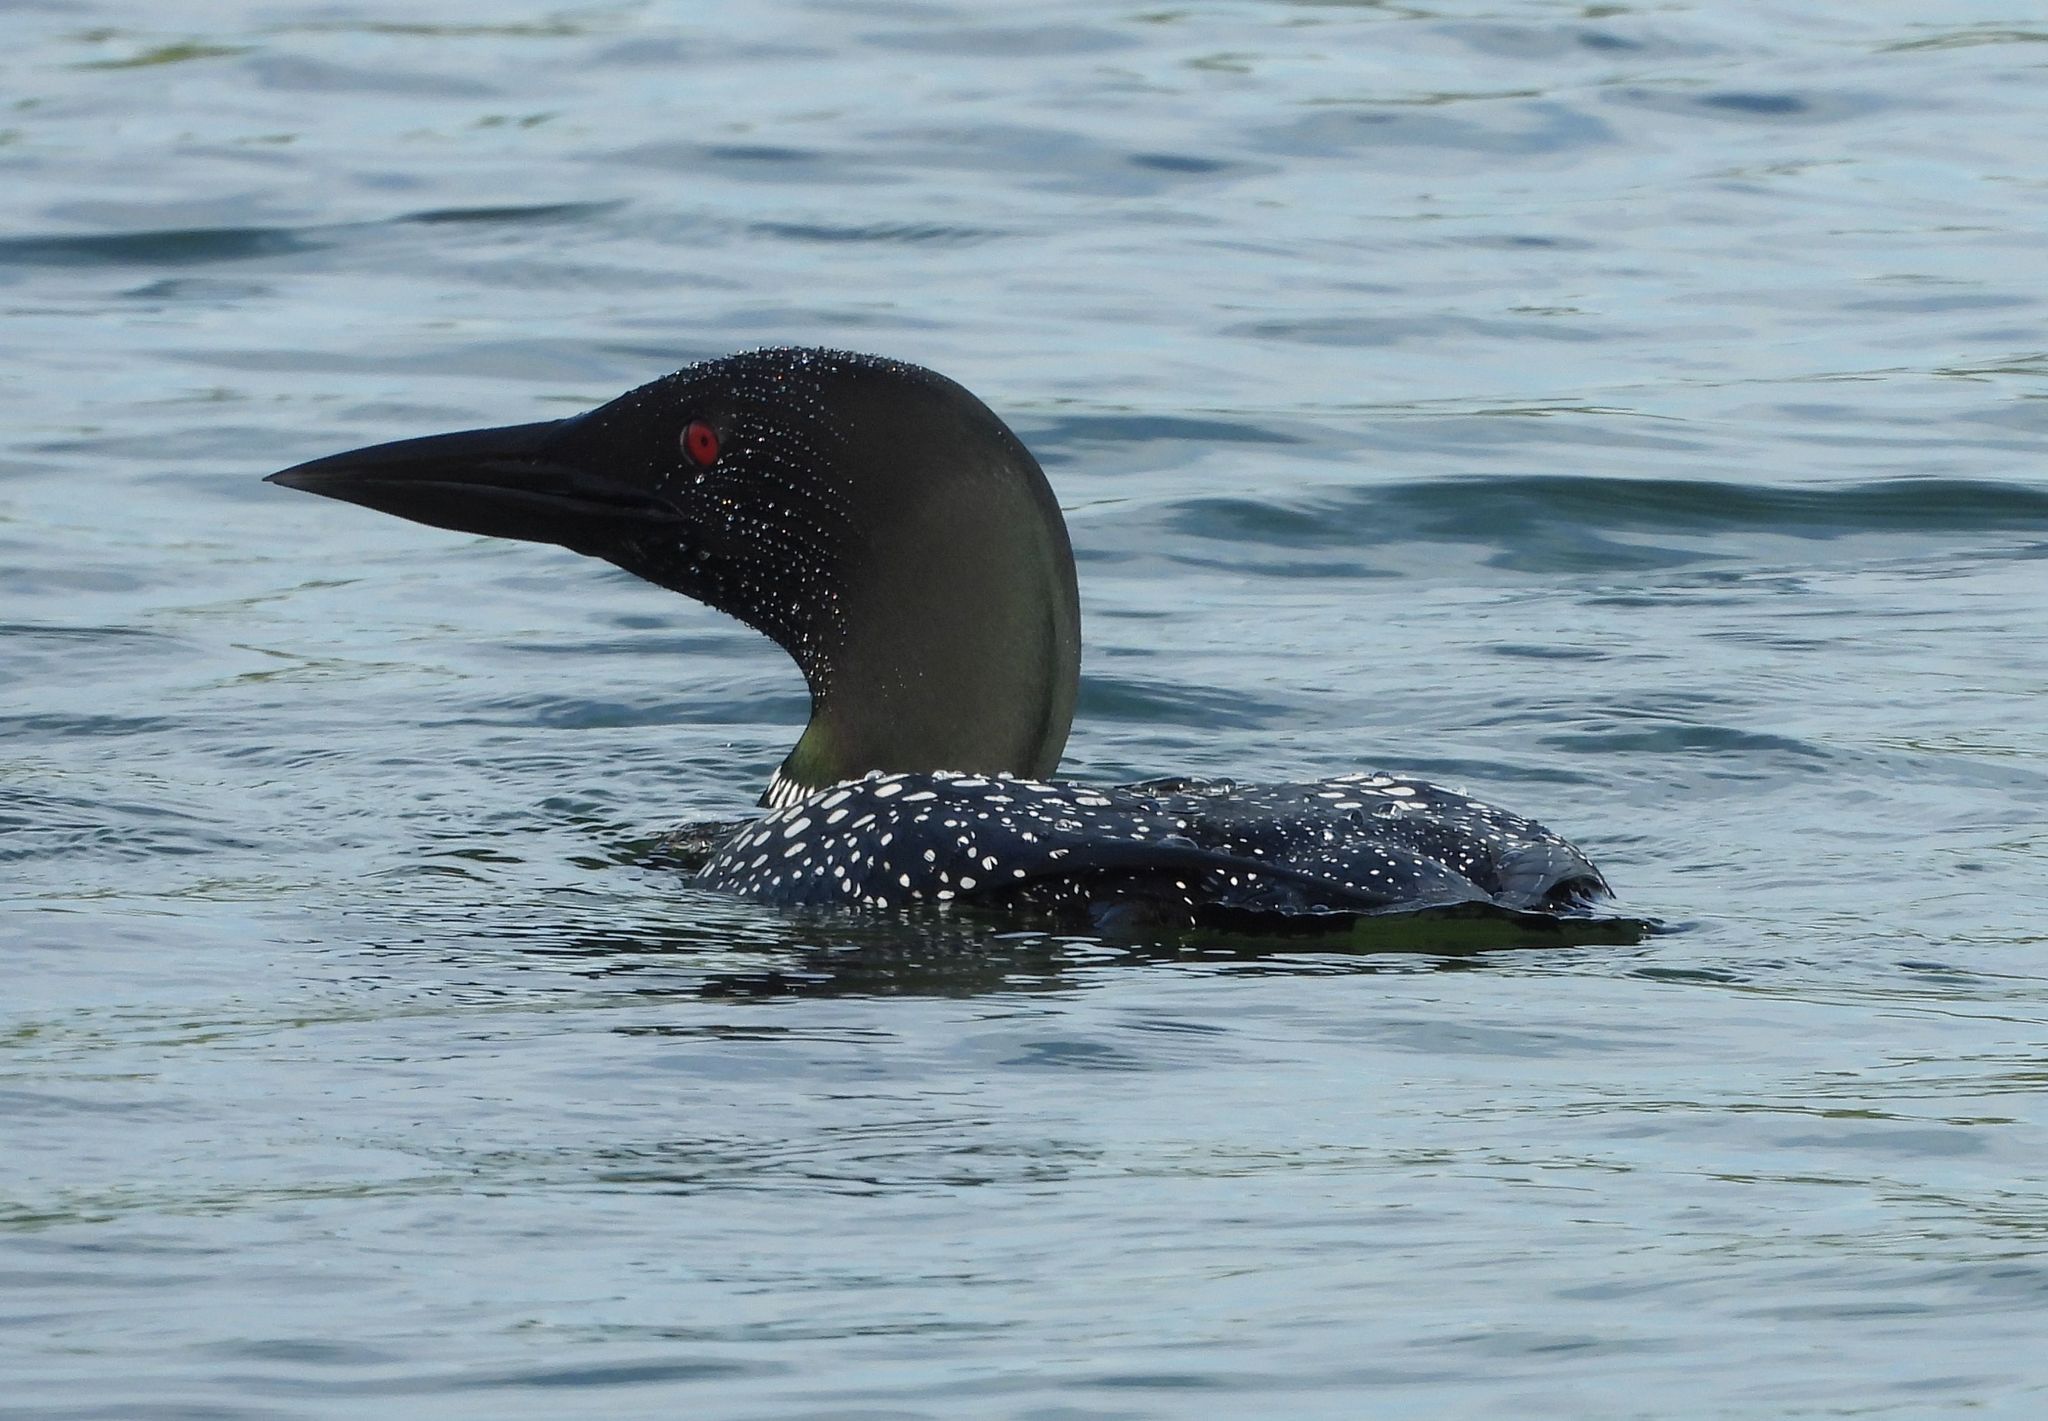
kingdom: Animalia
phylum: Chordata
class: Aves
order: Gaviiformes
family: Gaviidae
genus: Gavia
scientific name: Gavia immer
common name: Common loon
